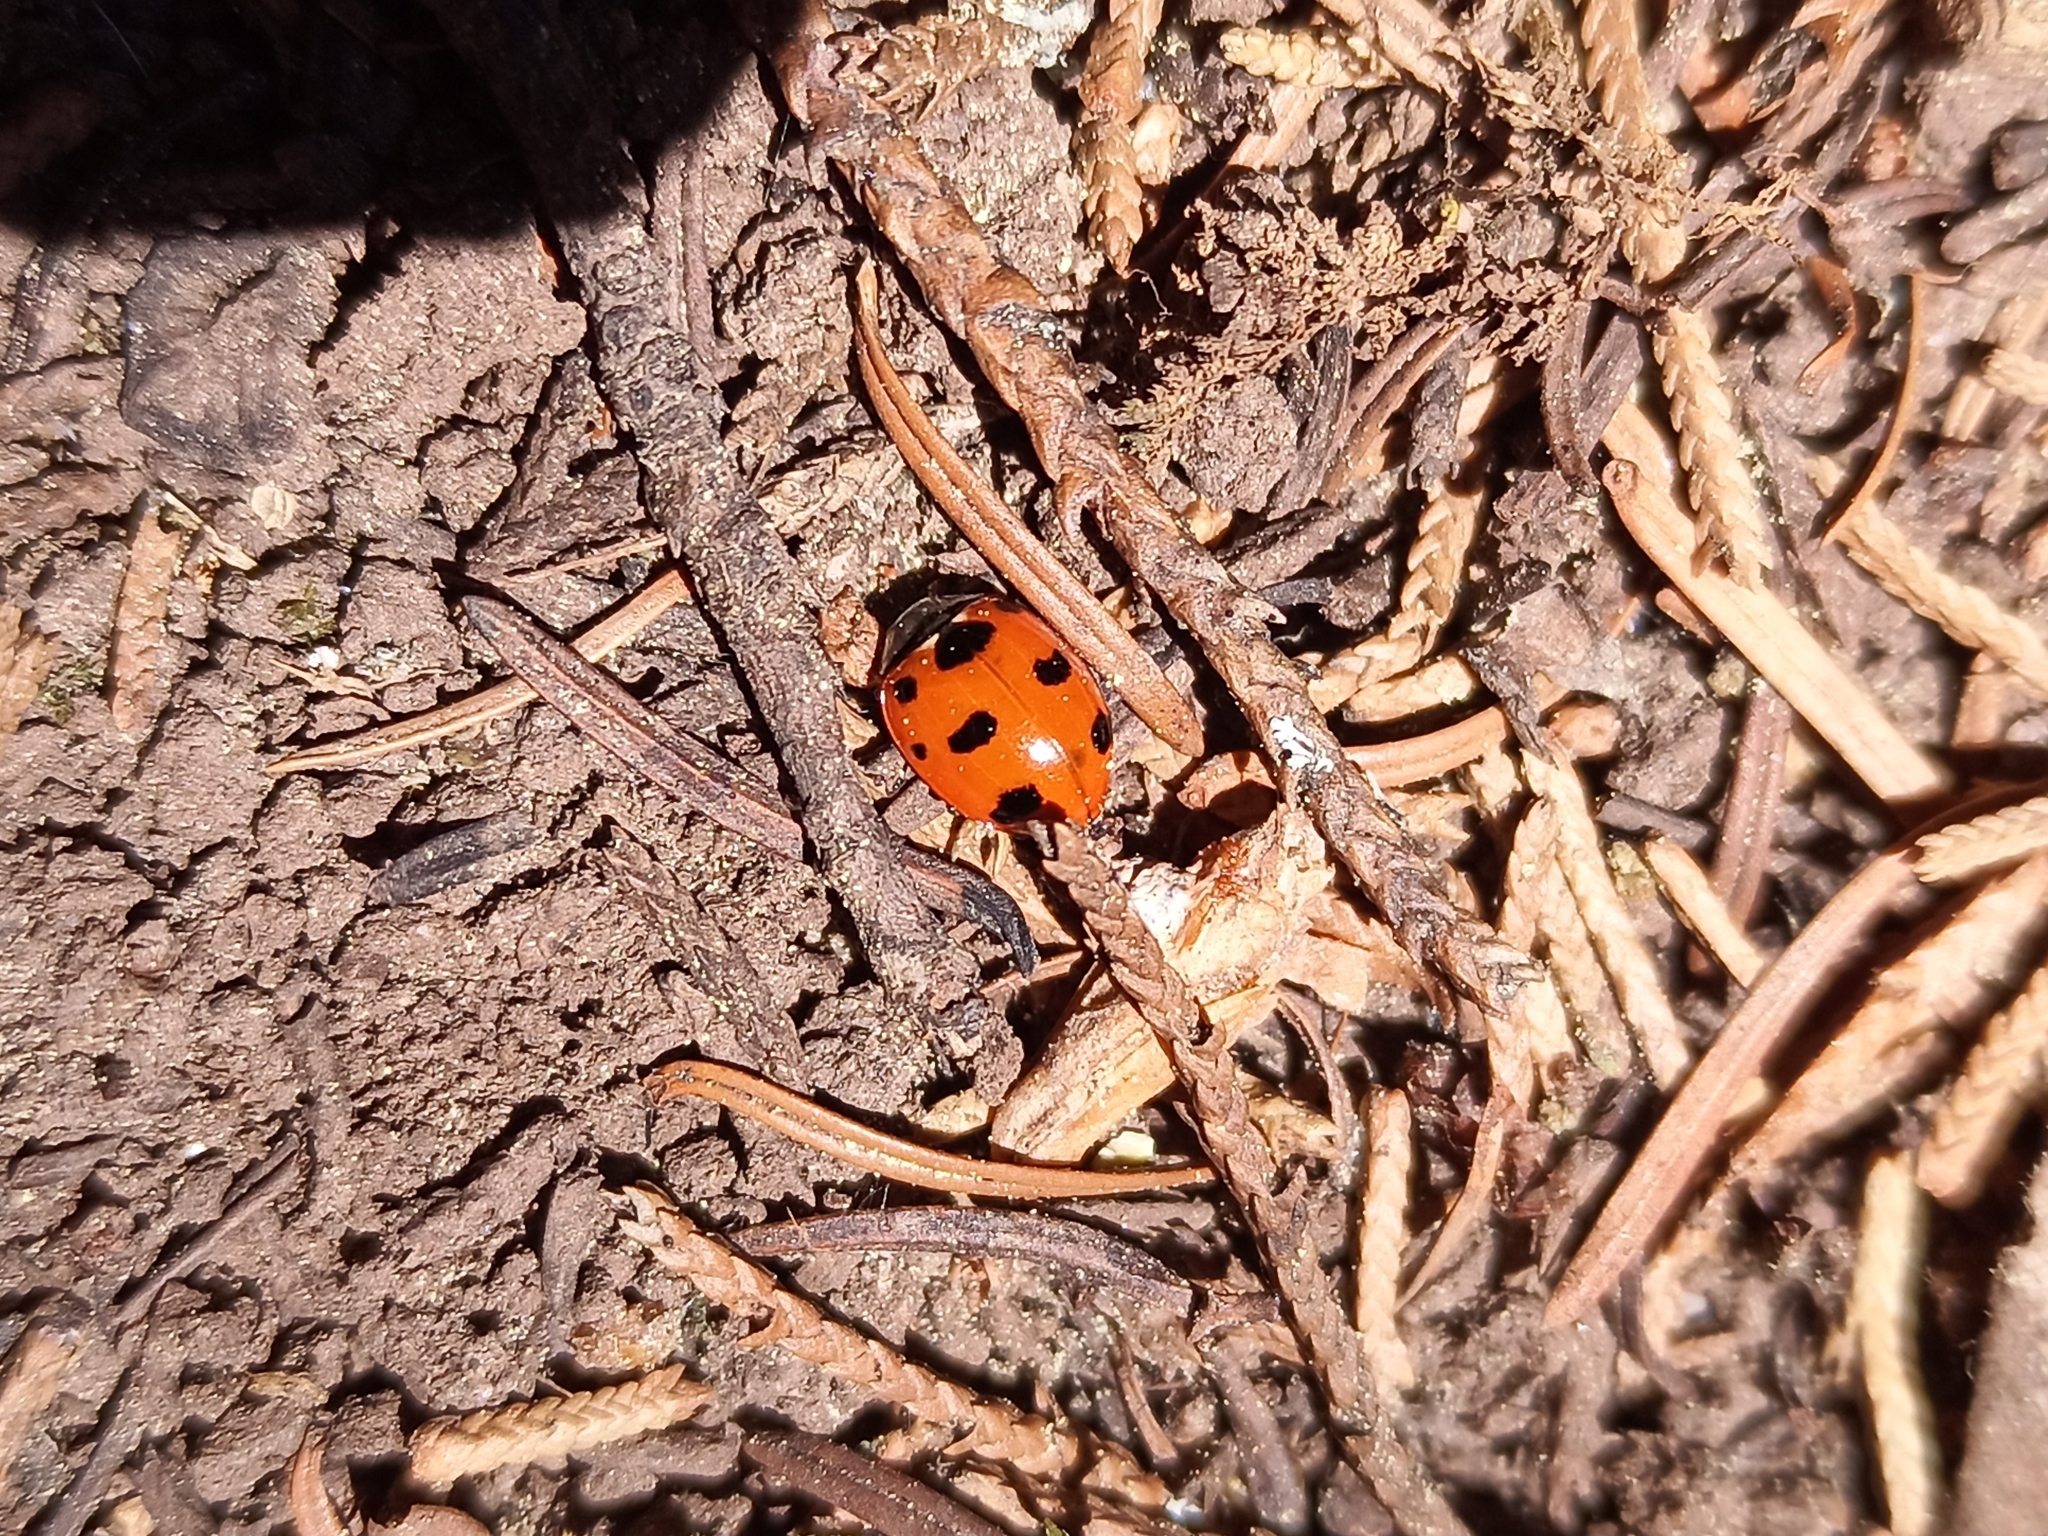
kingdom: Animalia
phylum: Arthropoda
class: Insecta
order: Coleoptera
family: Coccinellidae
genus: Coccinella
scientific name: Coccinella
